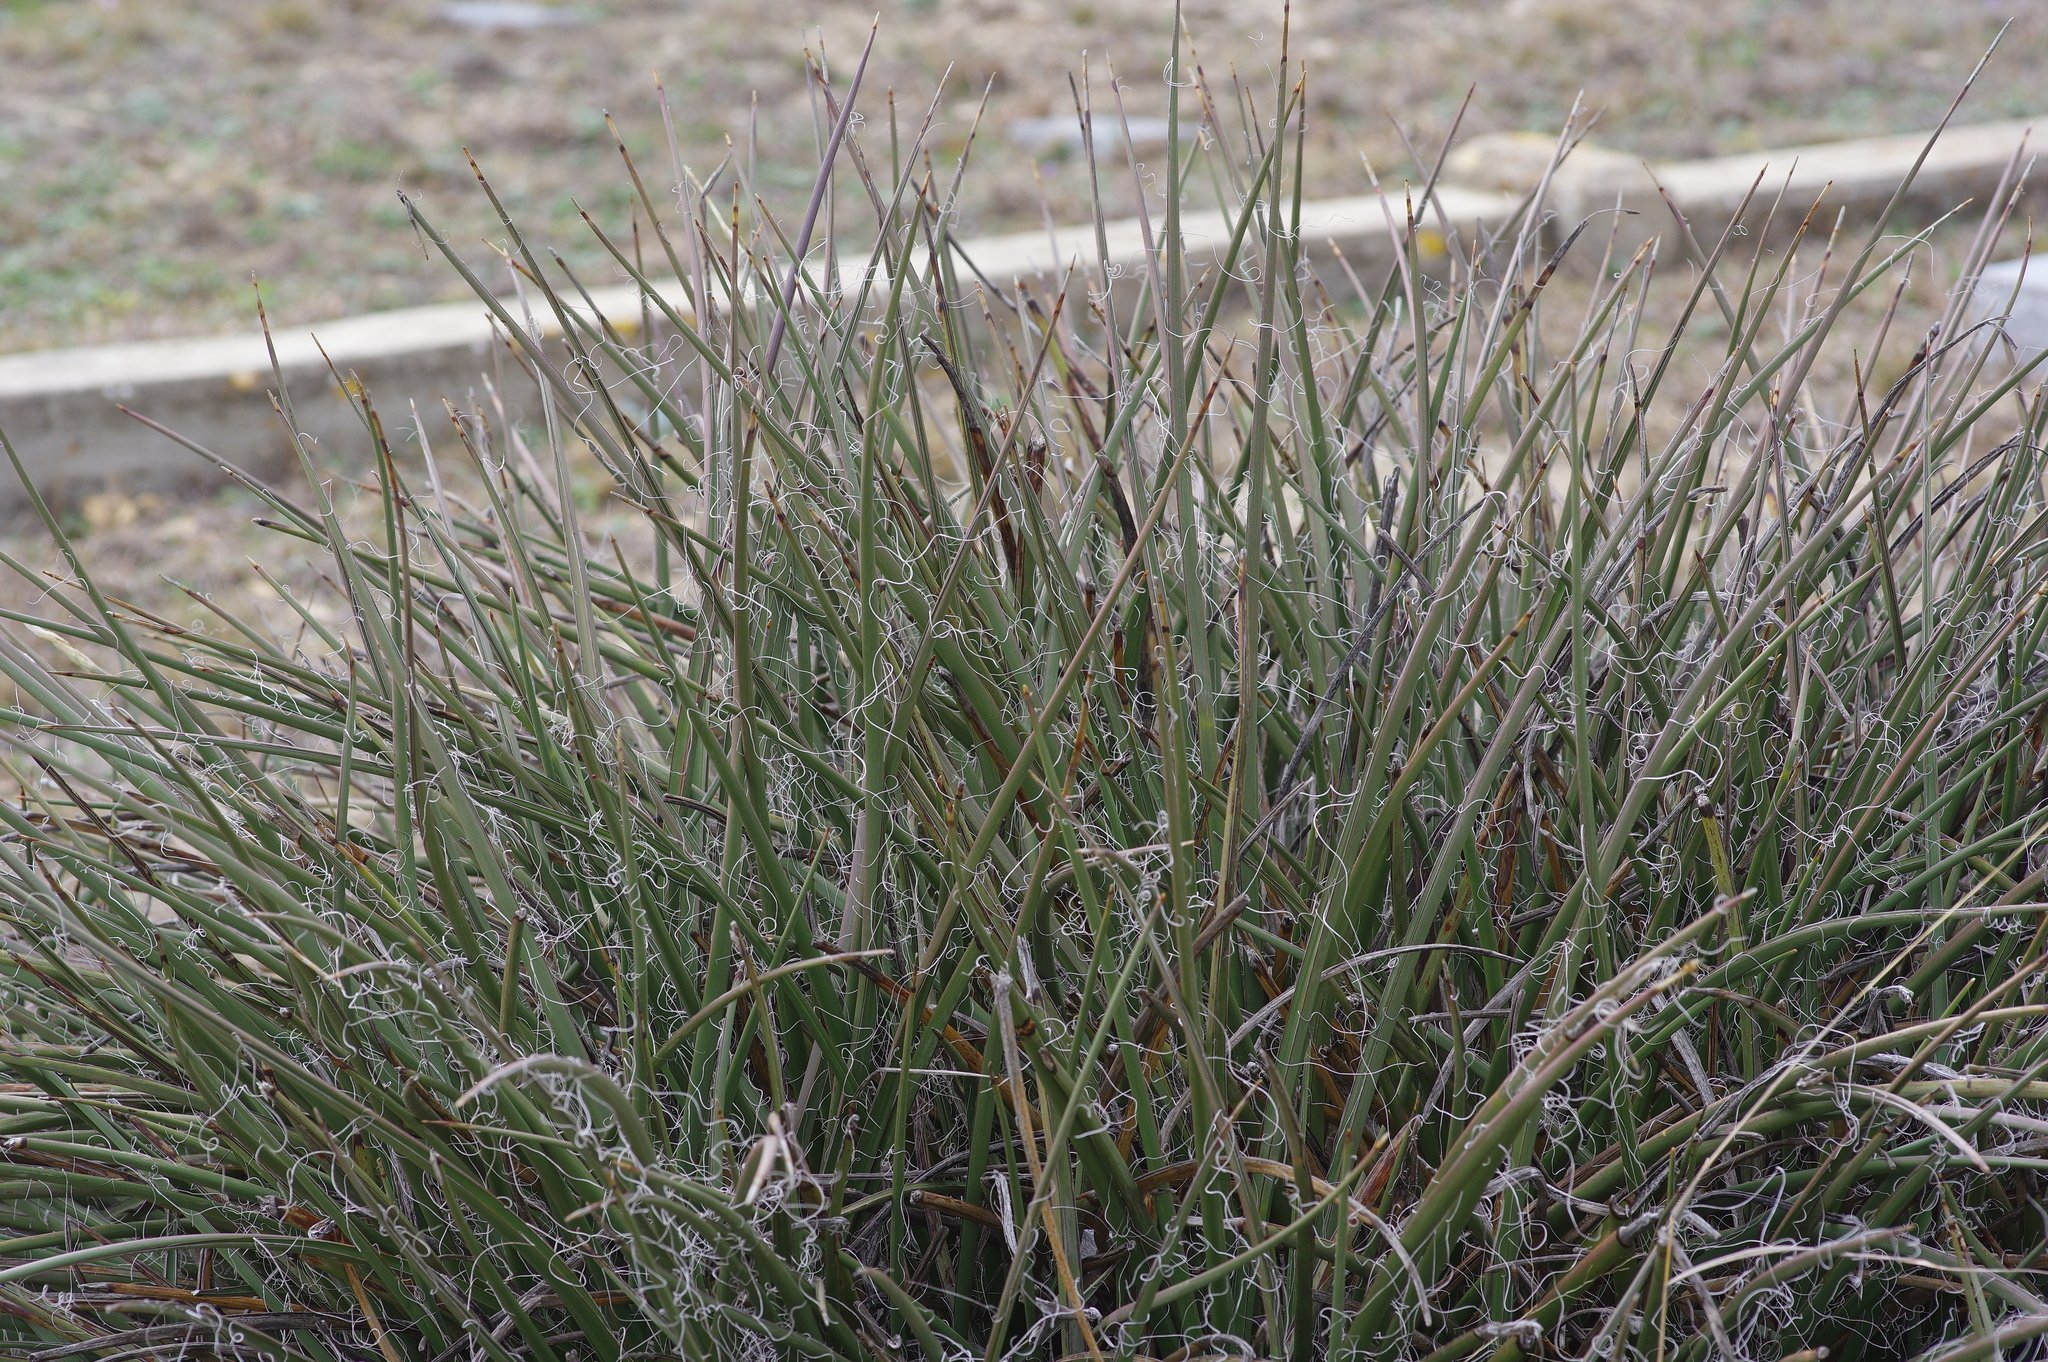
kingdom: Plantae
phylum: Tracheophyta
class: Liliopsida
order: Asparagales
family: Asparagaceae
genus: Hesperaloe
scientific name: Hesperaloe parviflora
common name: Red hesperaloe
